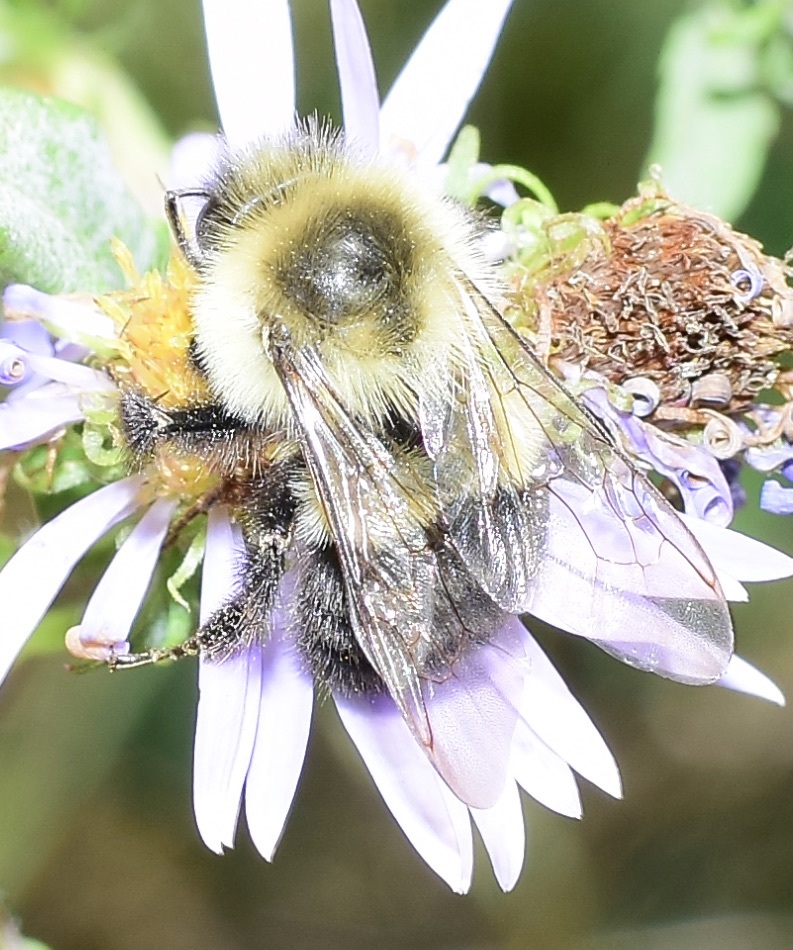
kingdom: Animalia
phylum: Arthropoda
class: Insecta
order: Hymenoptera
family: Apidae
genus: Bombus
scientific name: Bombus impatiens
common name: Common eastern bumble bee
